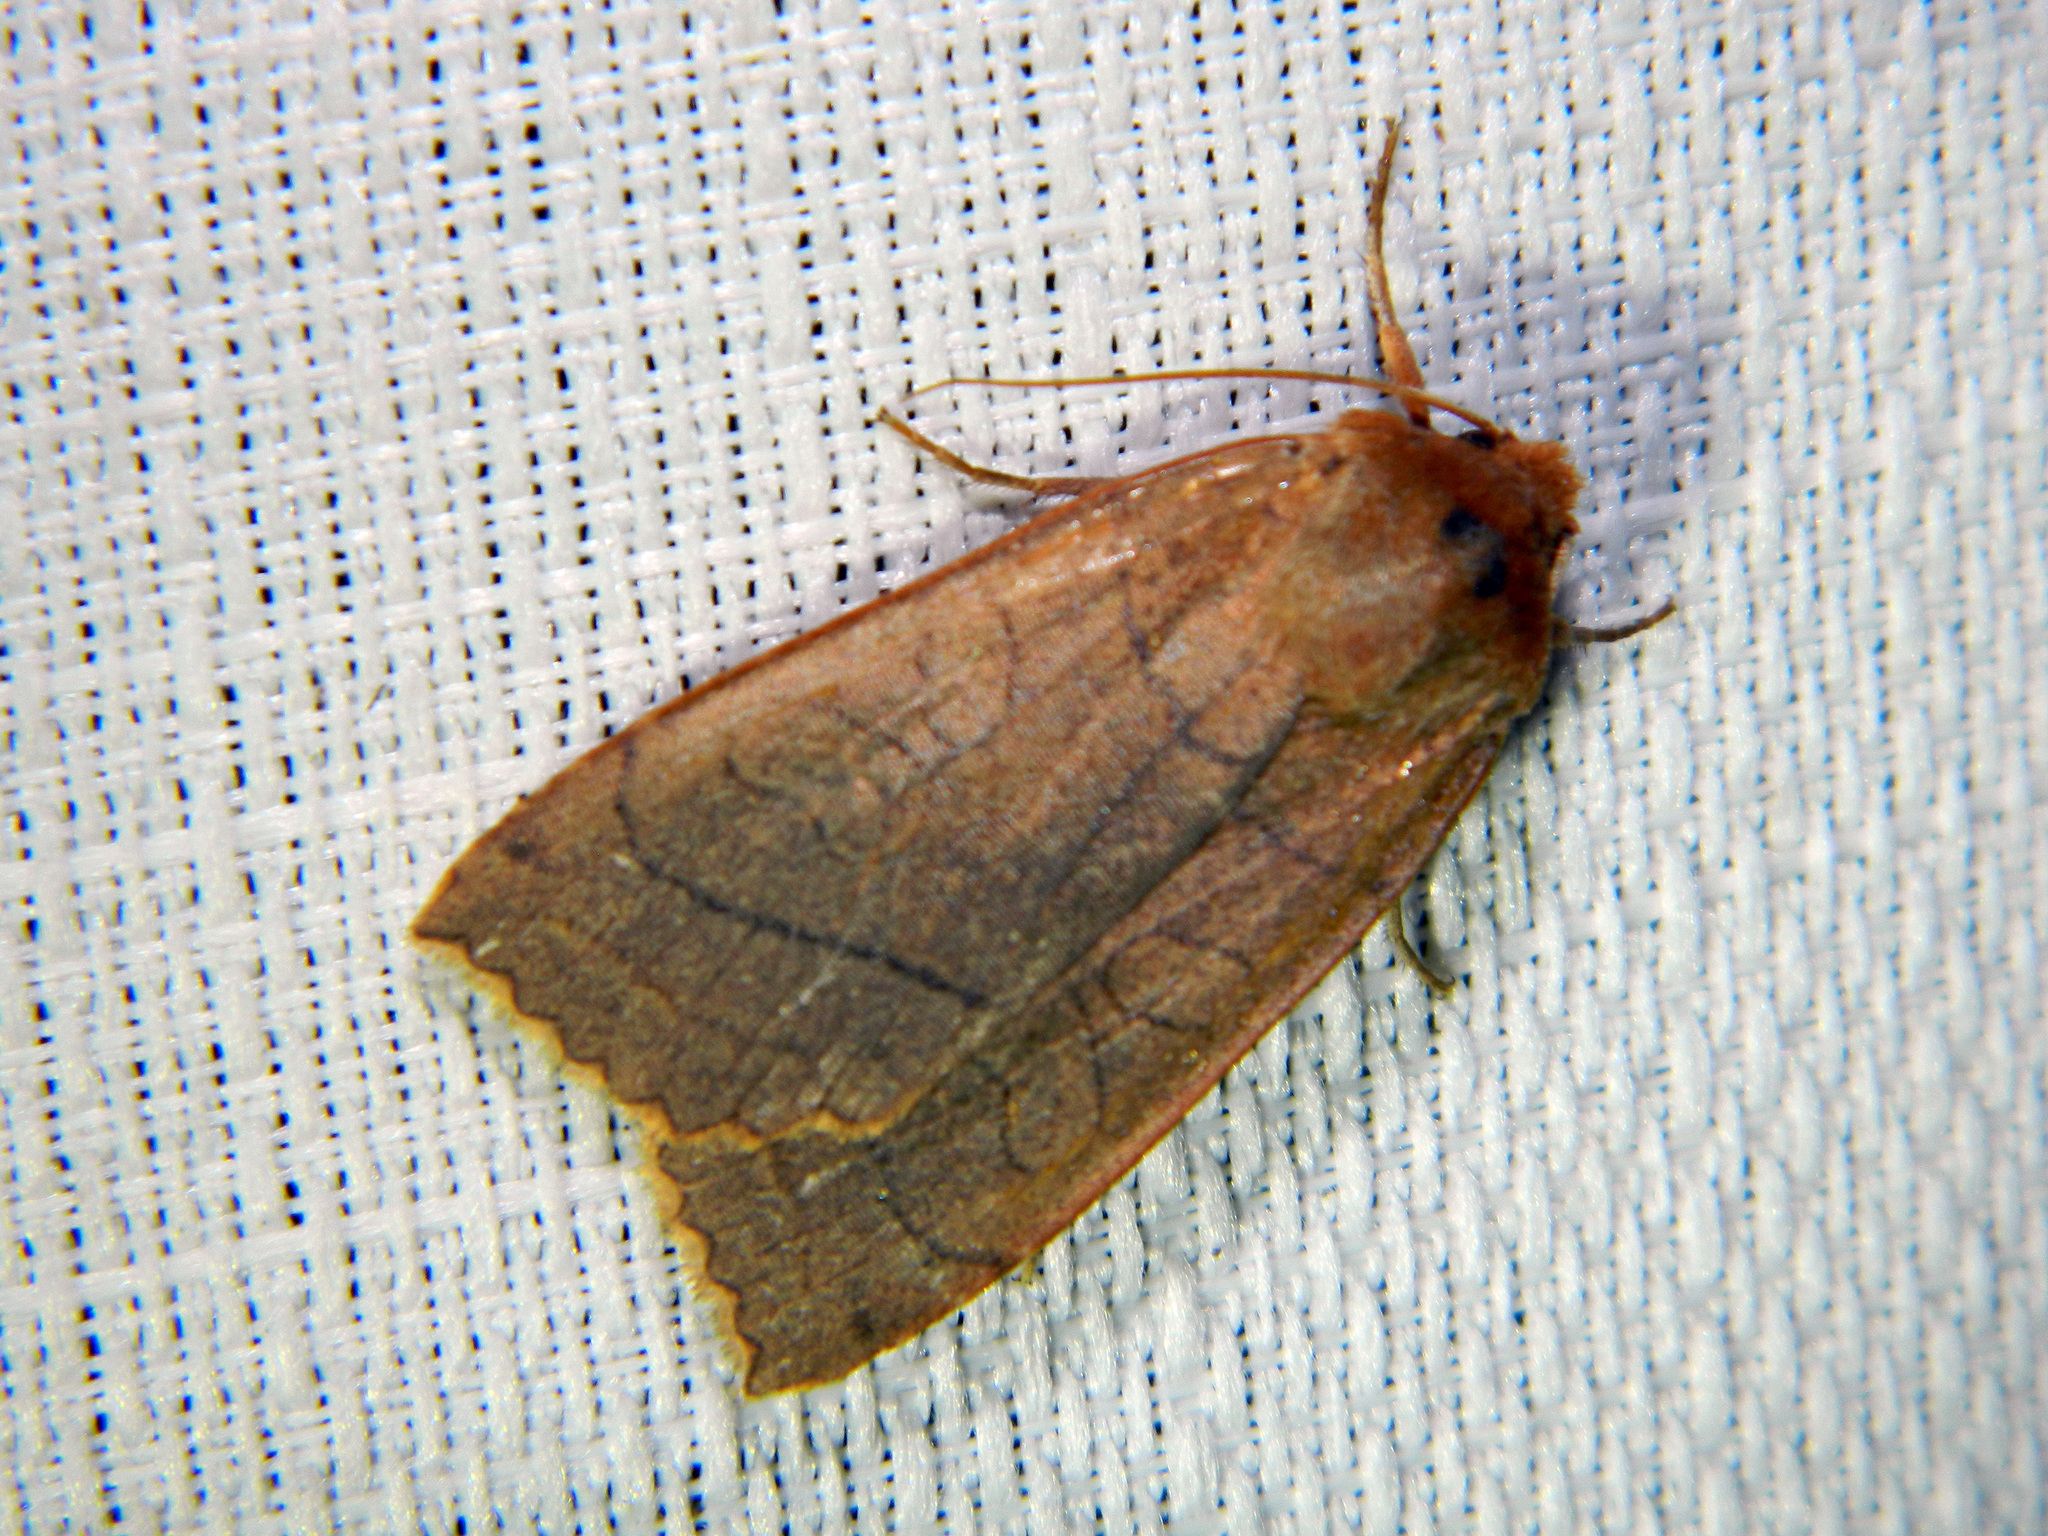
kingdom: Animalia
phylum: Arthropoda
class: Insecta
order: Lepidoptera
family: Noctuidae
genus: Metaxaglaea
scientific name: Metaxaglaea inulta
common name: Unsated sallow
